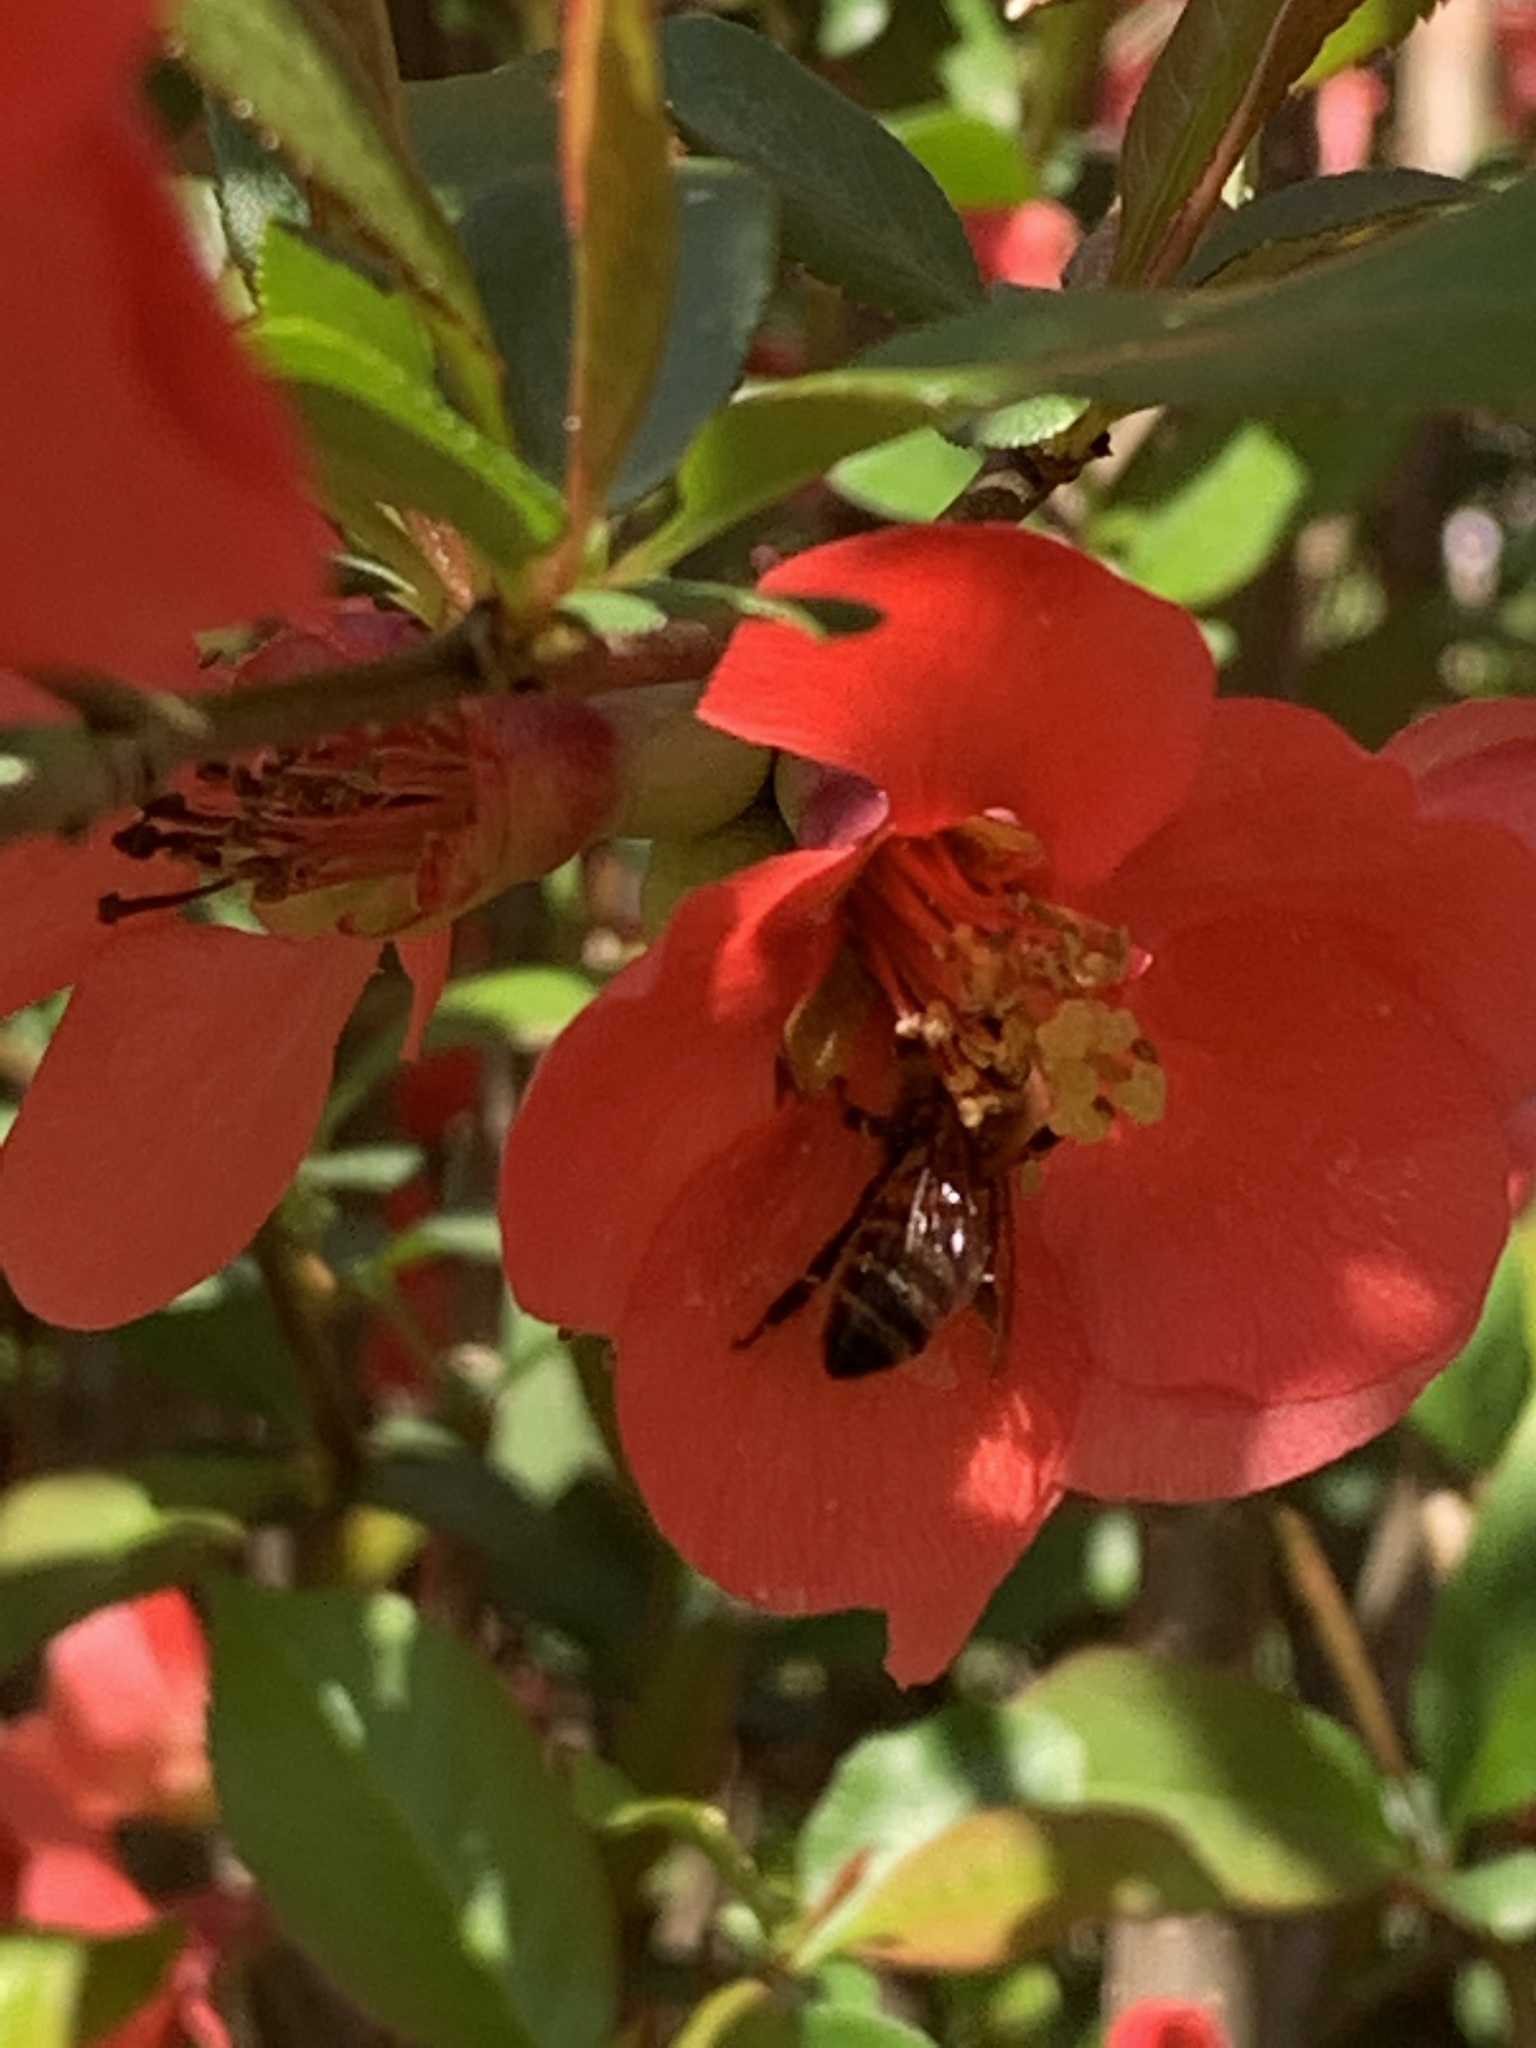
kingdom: Animalia
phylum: Arthropoda
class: Insecta
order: Hymenoptera
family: Apidae
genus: Apis
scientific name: Apis mellifera
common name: Honey bee
